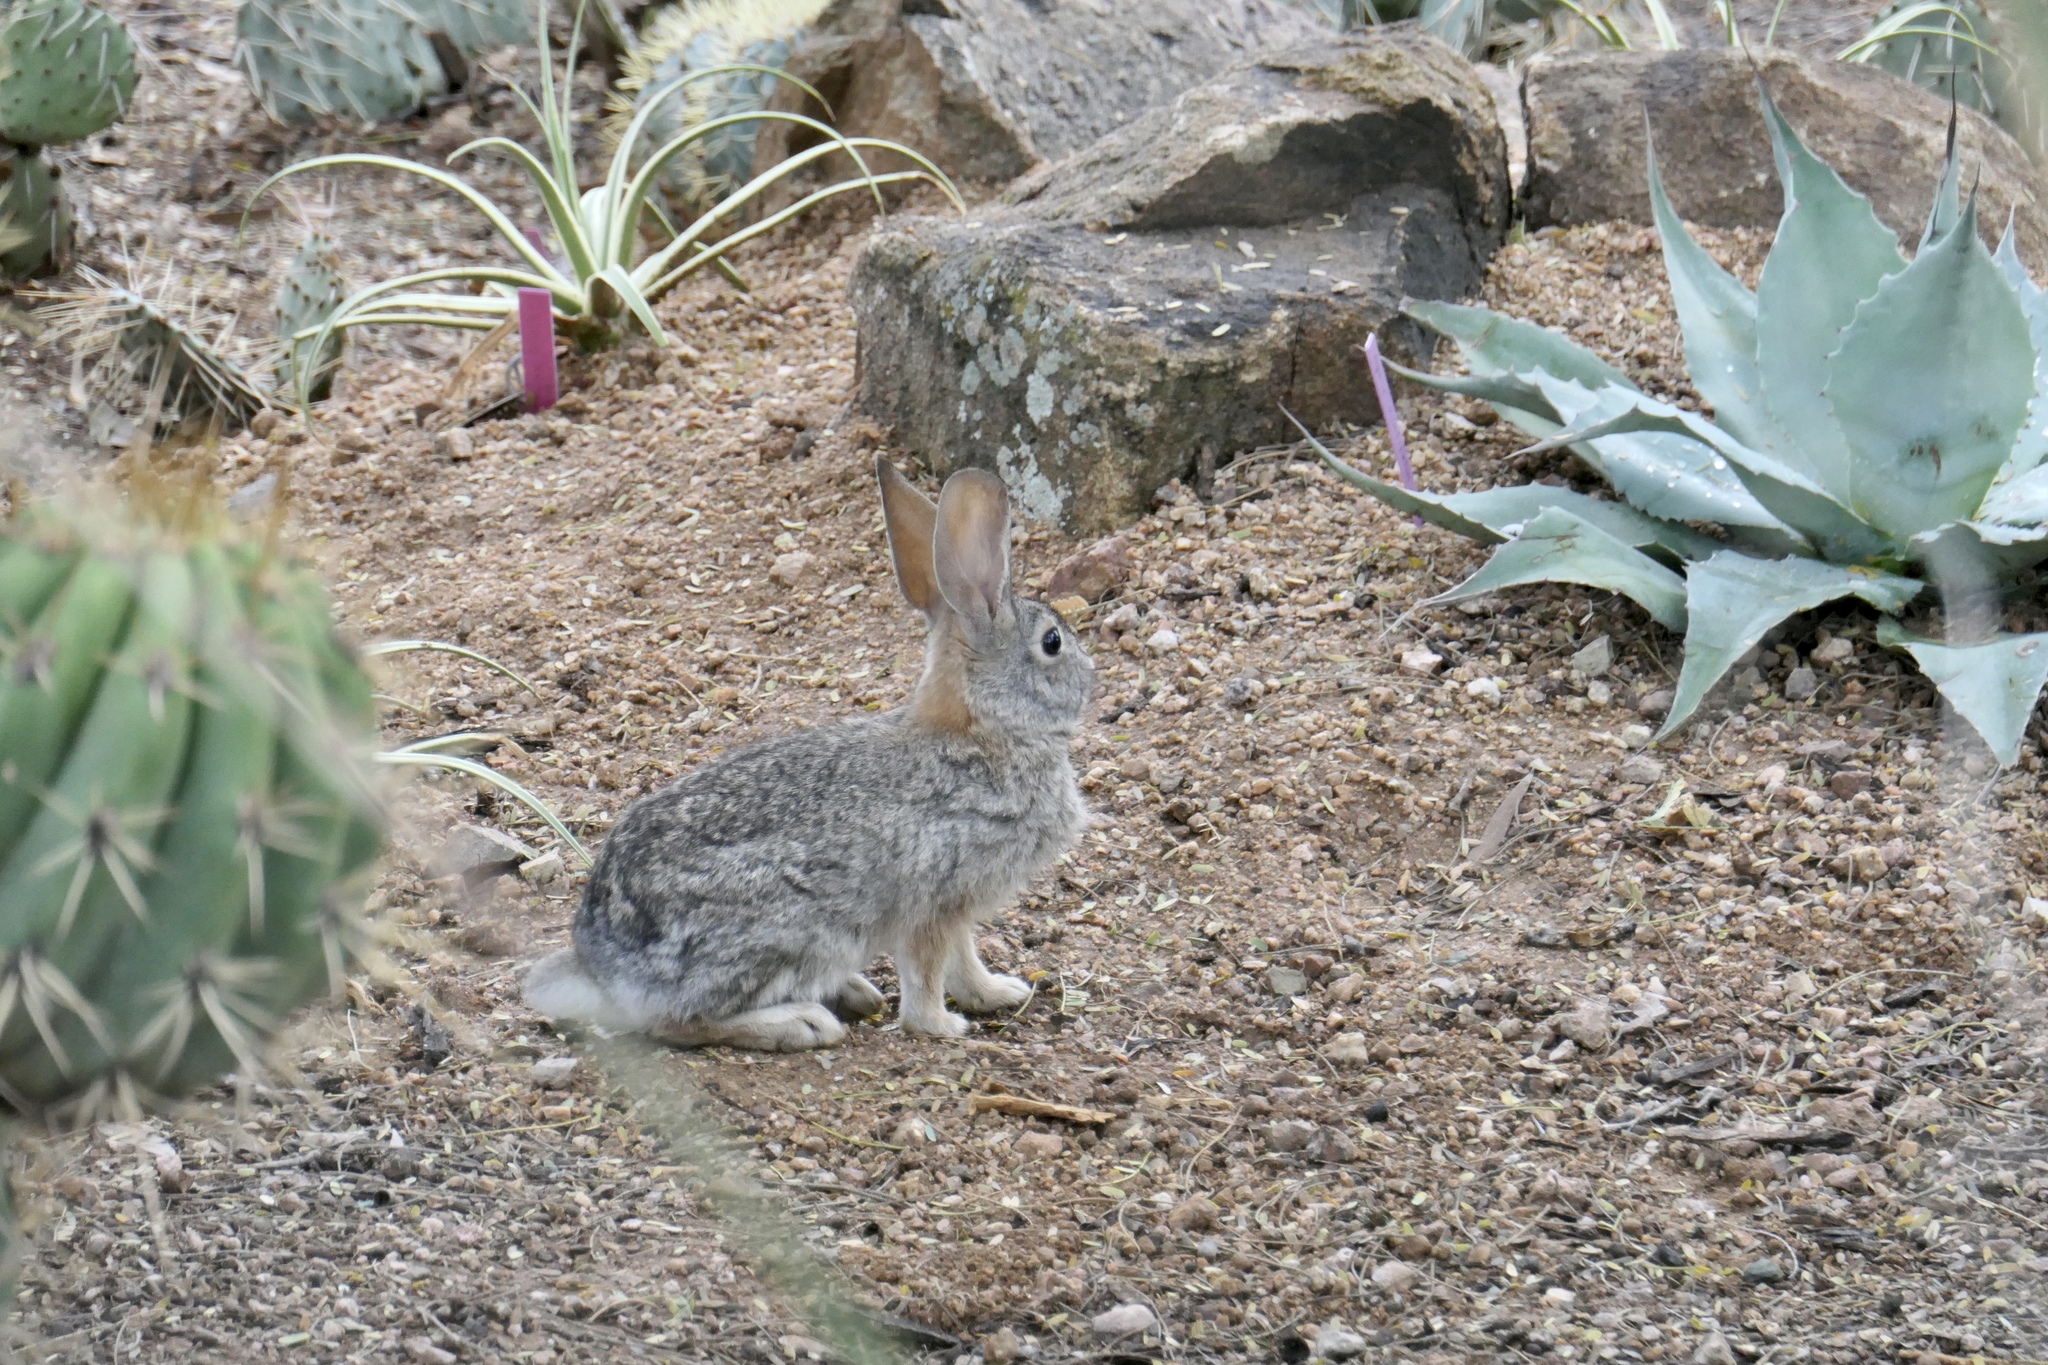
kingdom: Animalia
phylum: Chordata
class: Mammalia
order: Lagomorpha
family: Leporidae
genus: Sylvilagus
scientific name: Sylvilagus audubonii
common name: Desert cottontail
